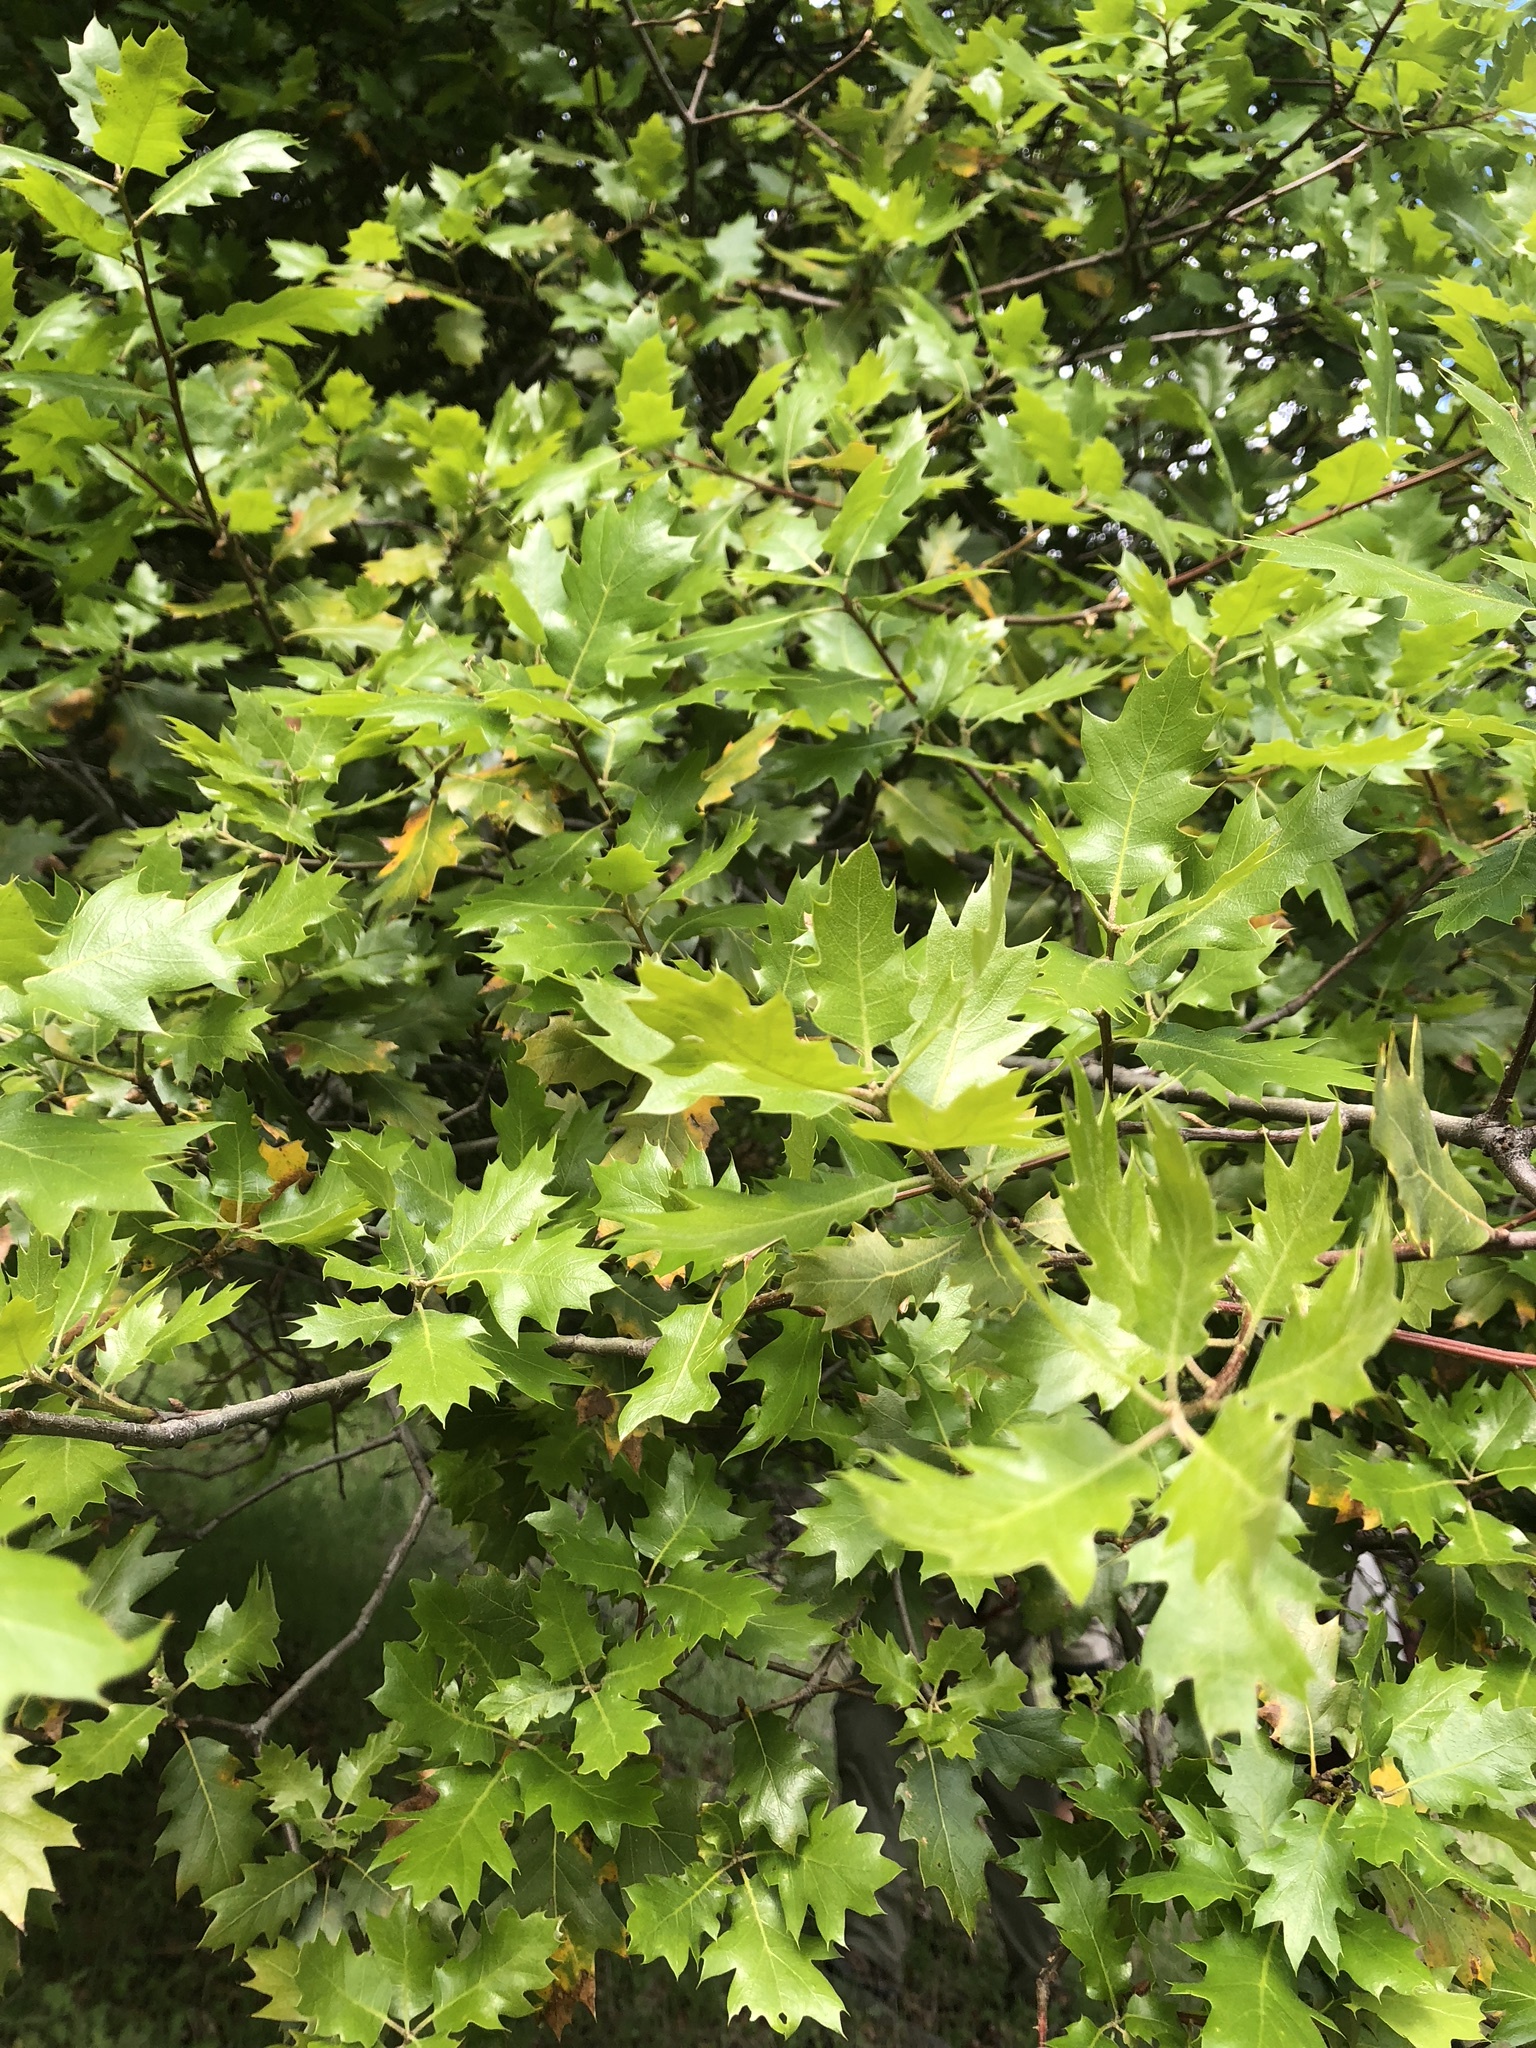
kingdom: Plantae
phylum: Tracheophyta
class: Magnoliopsida
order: Fagales
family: Fagaceae
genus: Quercus
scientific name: Quercus morehus
